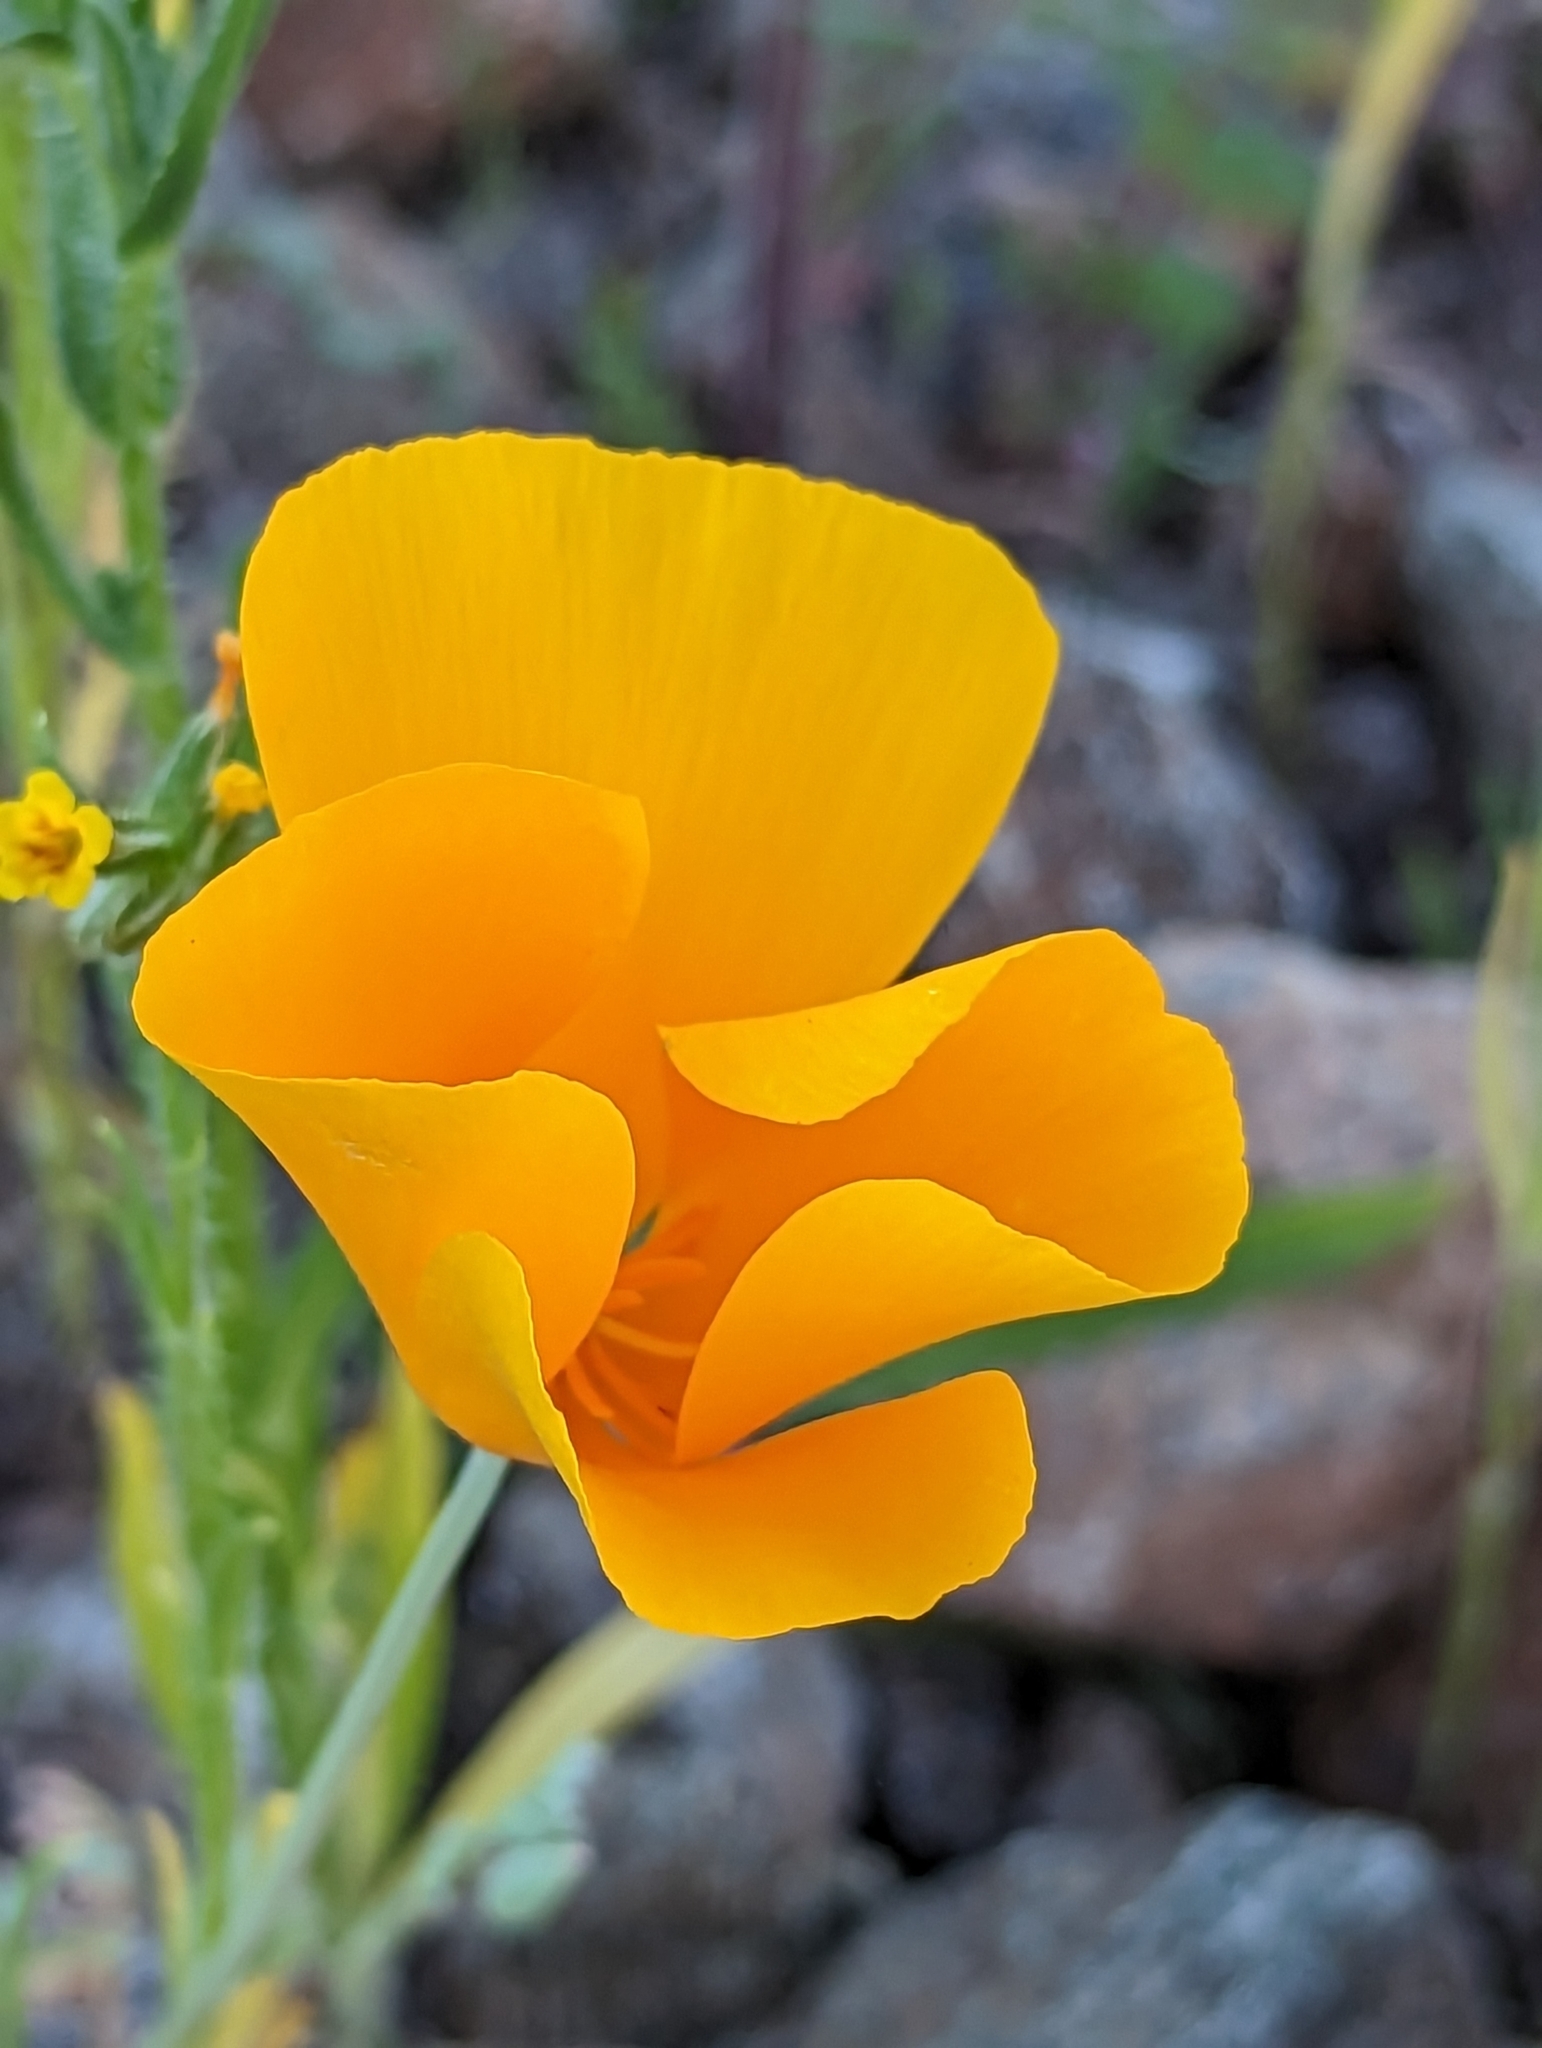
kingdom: Plantae
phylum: Tracheophyta
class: Magnoliopsida
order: Ranunculales
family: Papaveraceae
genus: Eschscholzia
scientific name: Eschscholzia californica
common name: California poppy
